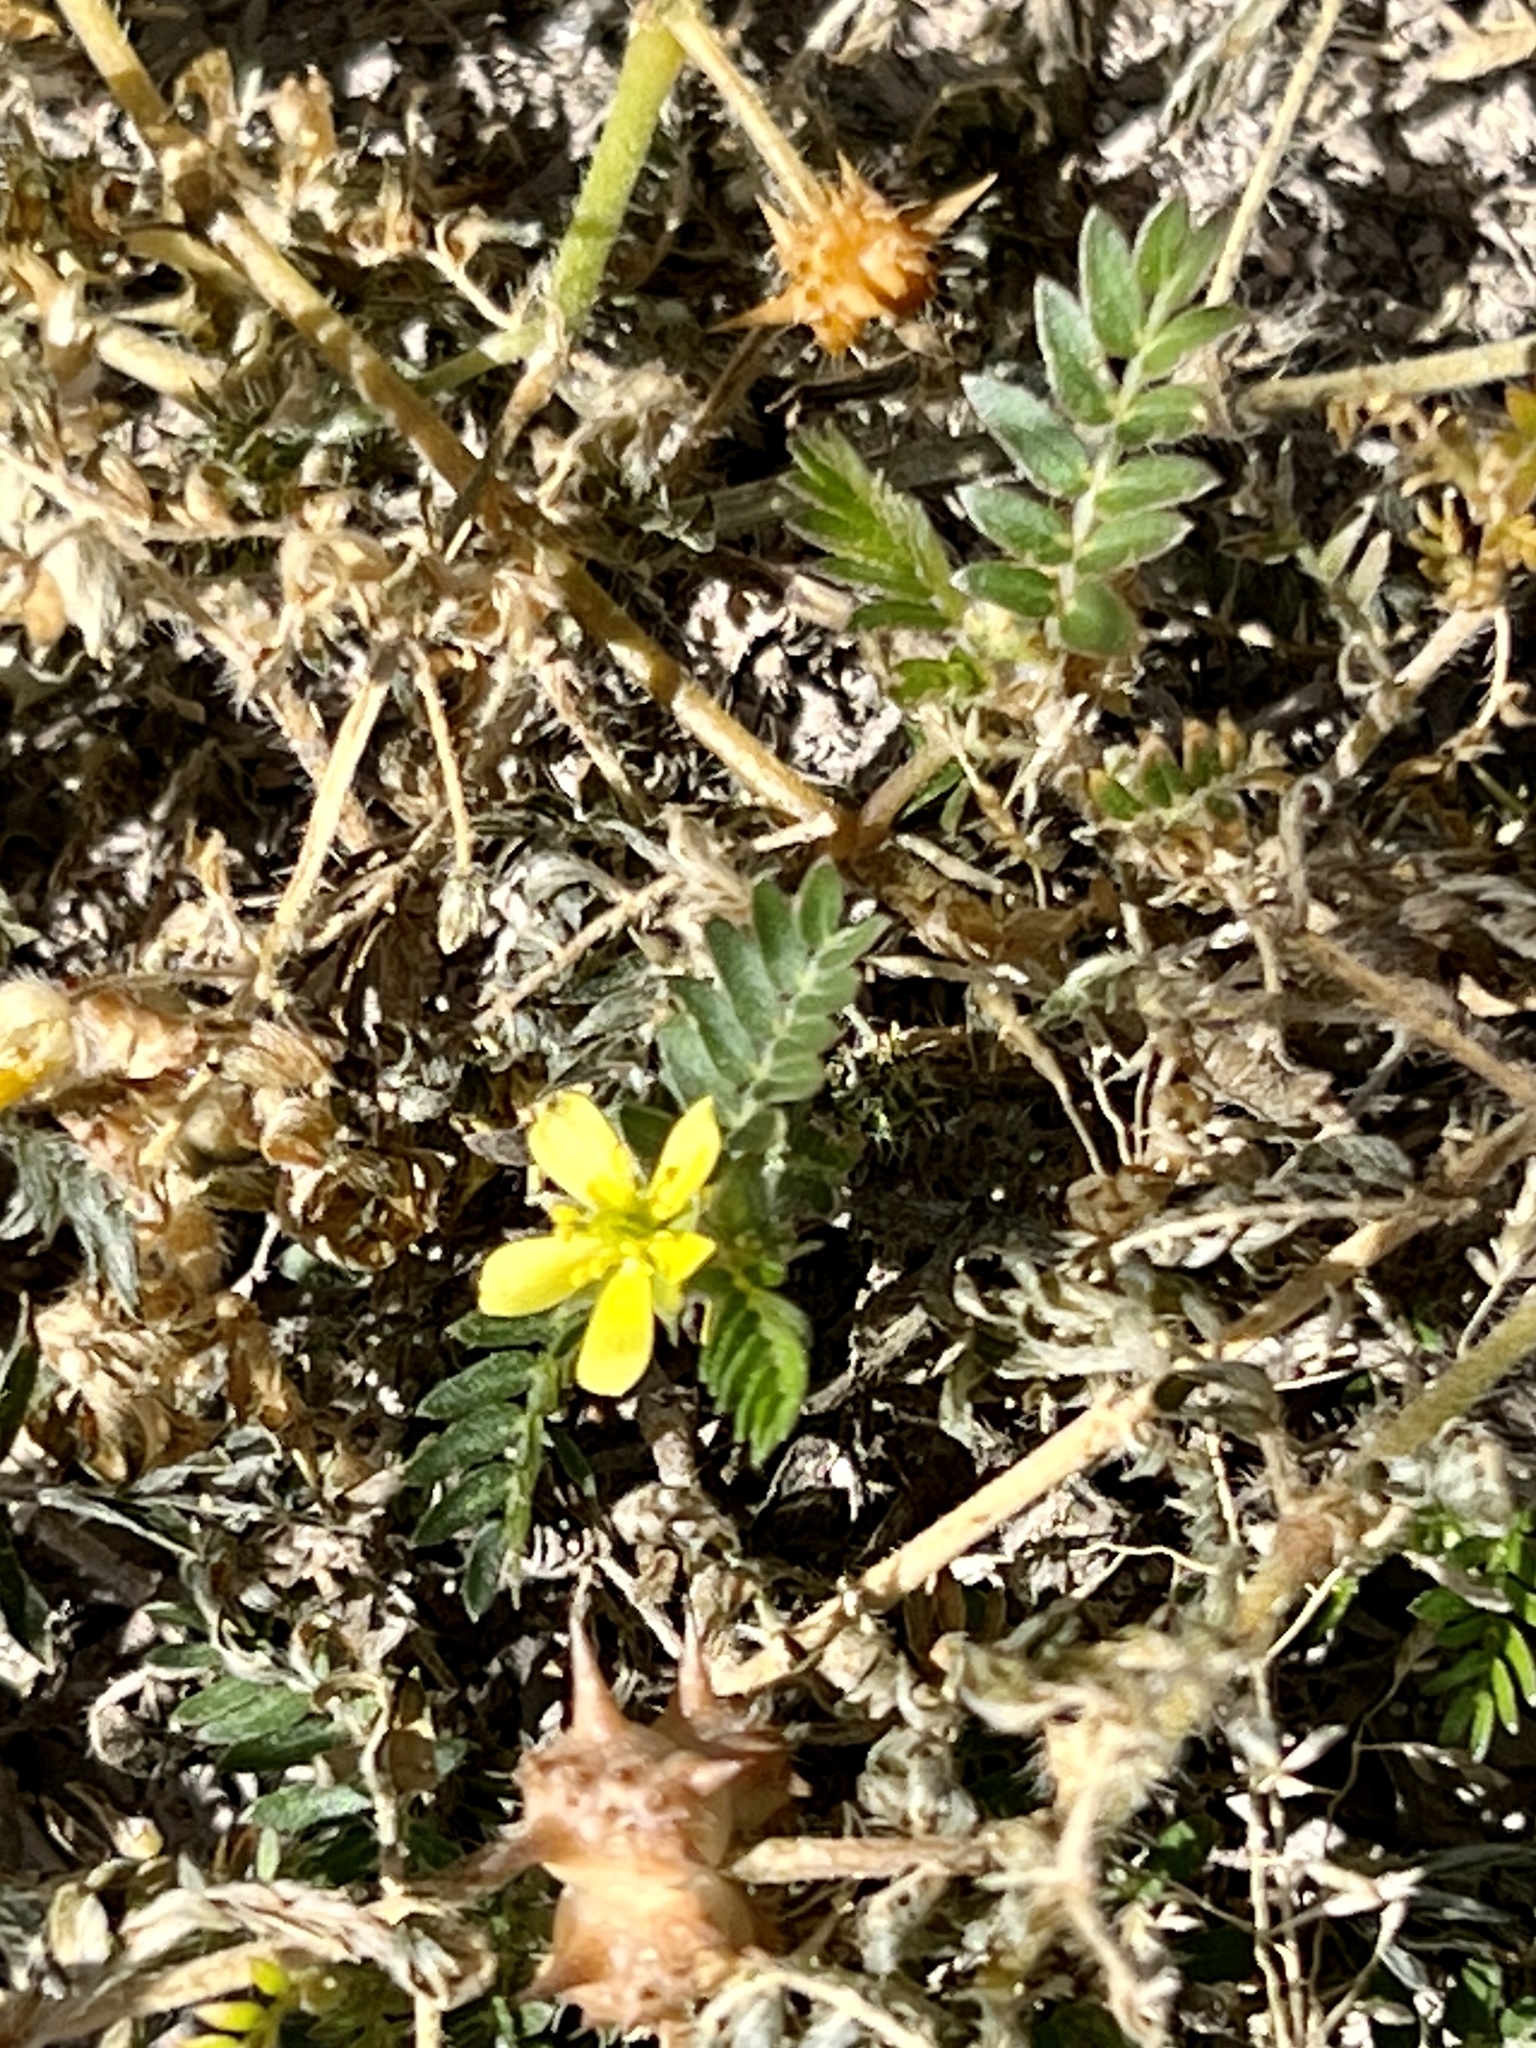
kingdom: Plantae
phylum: Tracheophyta
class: Magnoliopsida
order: Zygophyllales
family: Zygophyllaceae
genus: Tribulus
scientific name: Tribulus terrestris
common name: Puncturevine
